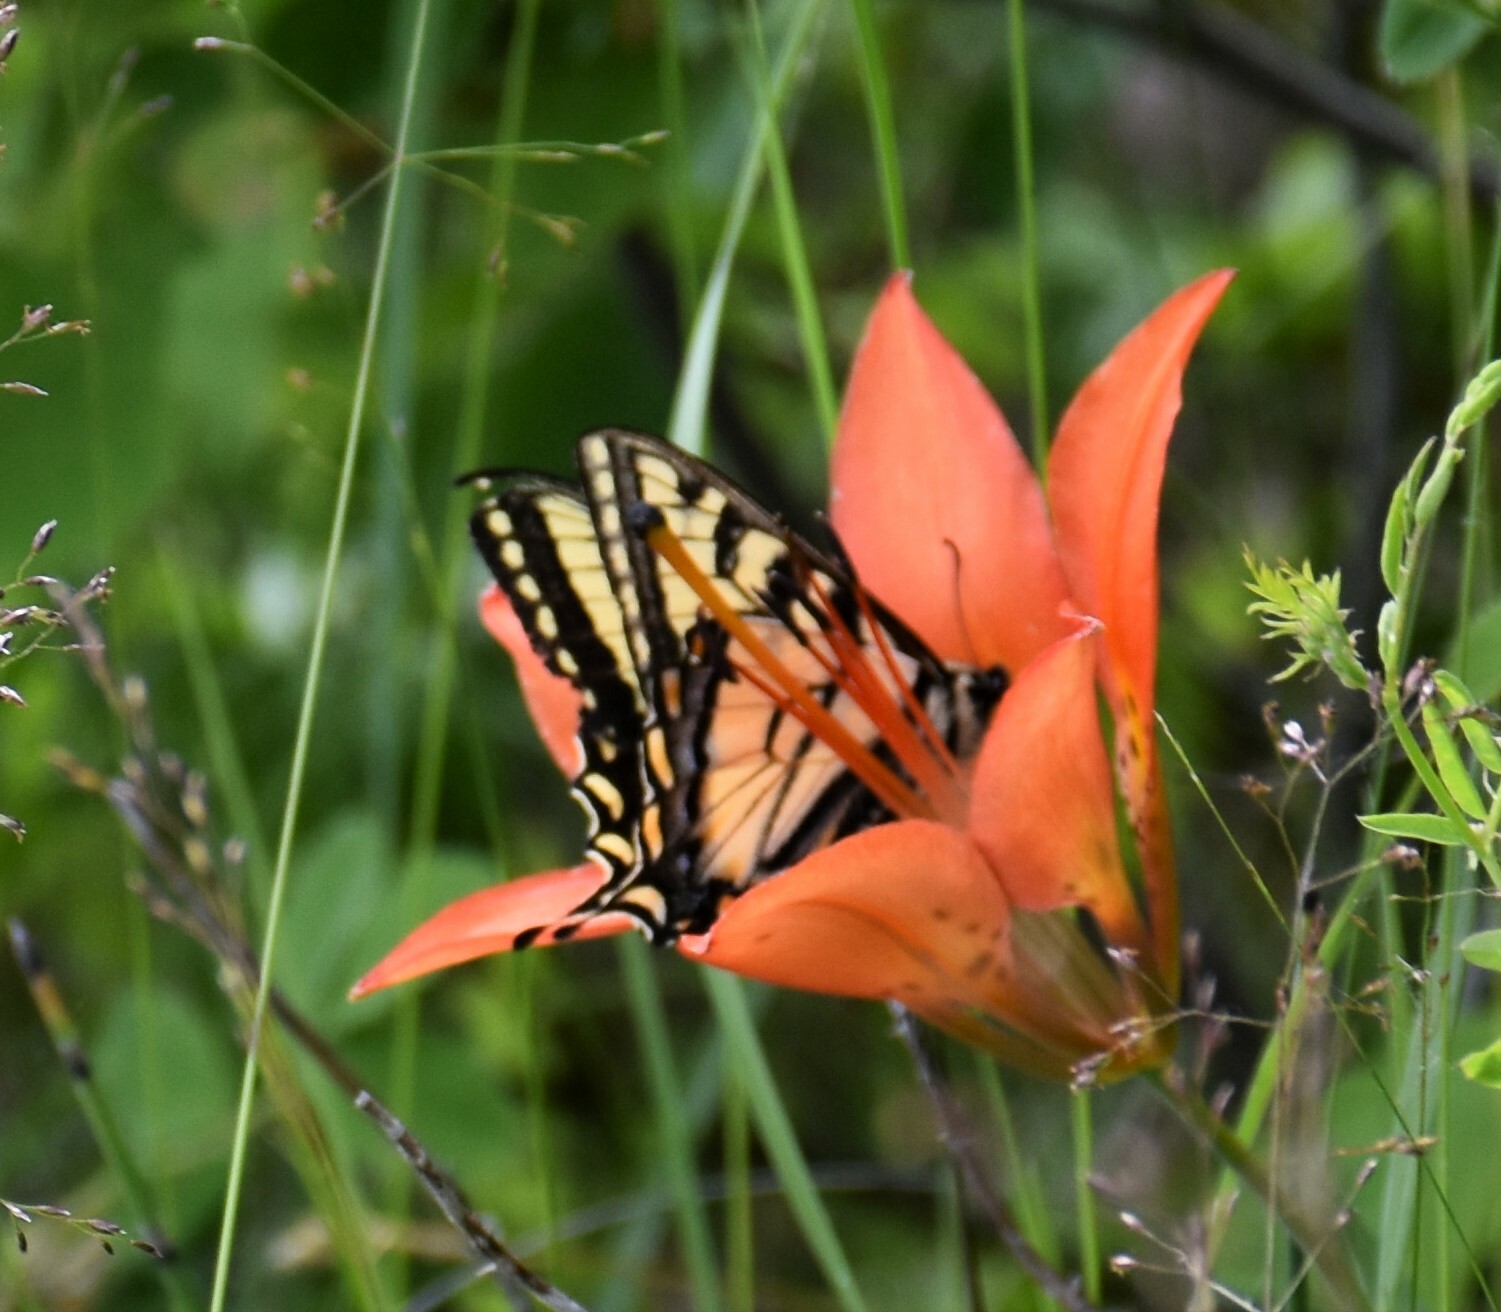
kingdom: Animalia
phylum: Arthropoda
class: Insecta
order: Lepidoptera
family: Papilionidae
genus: Papilio
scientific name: Papilio canadensis
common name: Canadian tiger swallowtail
